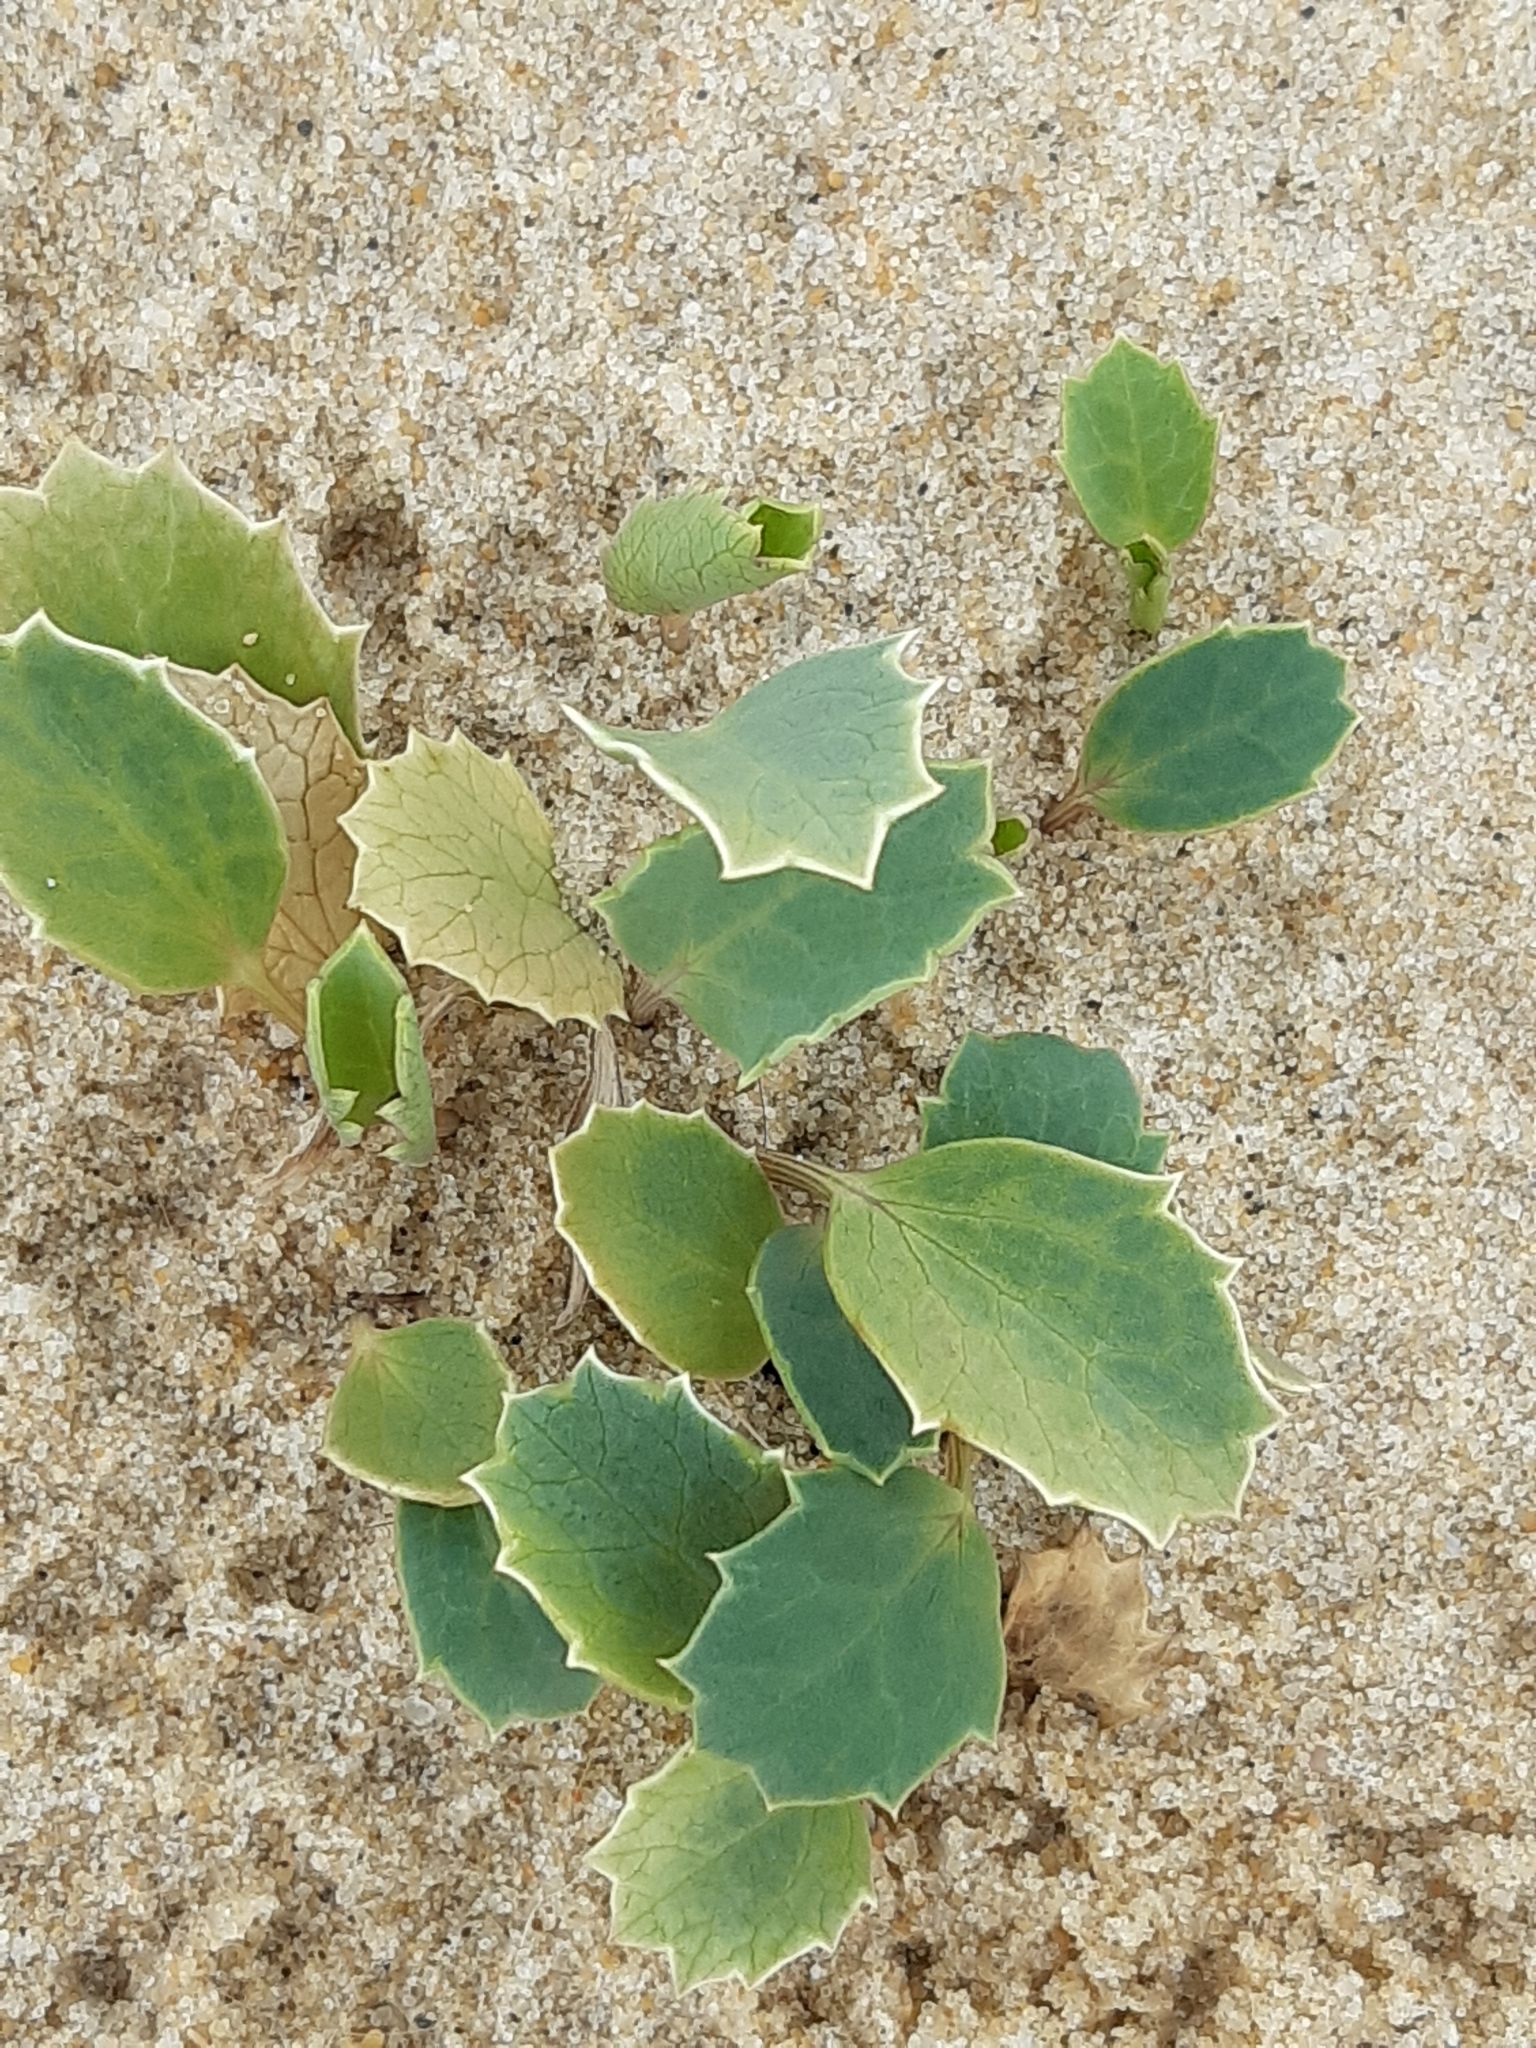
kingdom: Plantae
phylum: Tracheophyta
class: Magnoliopsida
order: Apiales
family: Apiaceae
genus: Eryngium
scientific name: Eryngium maritimum
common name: Sea-holly
